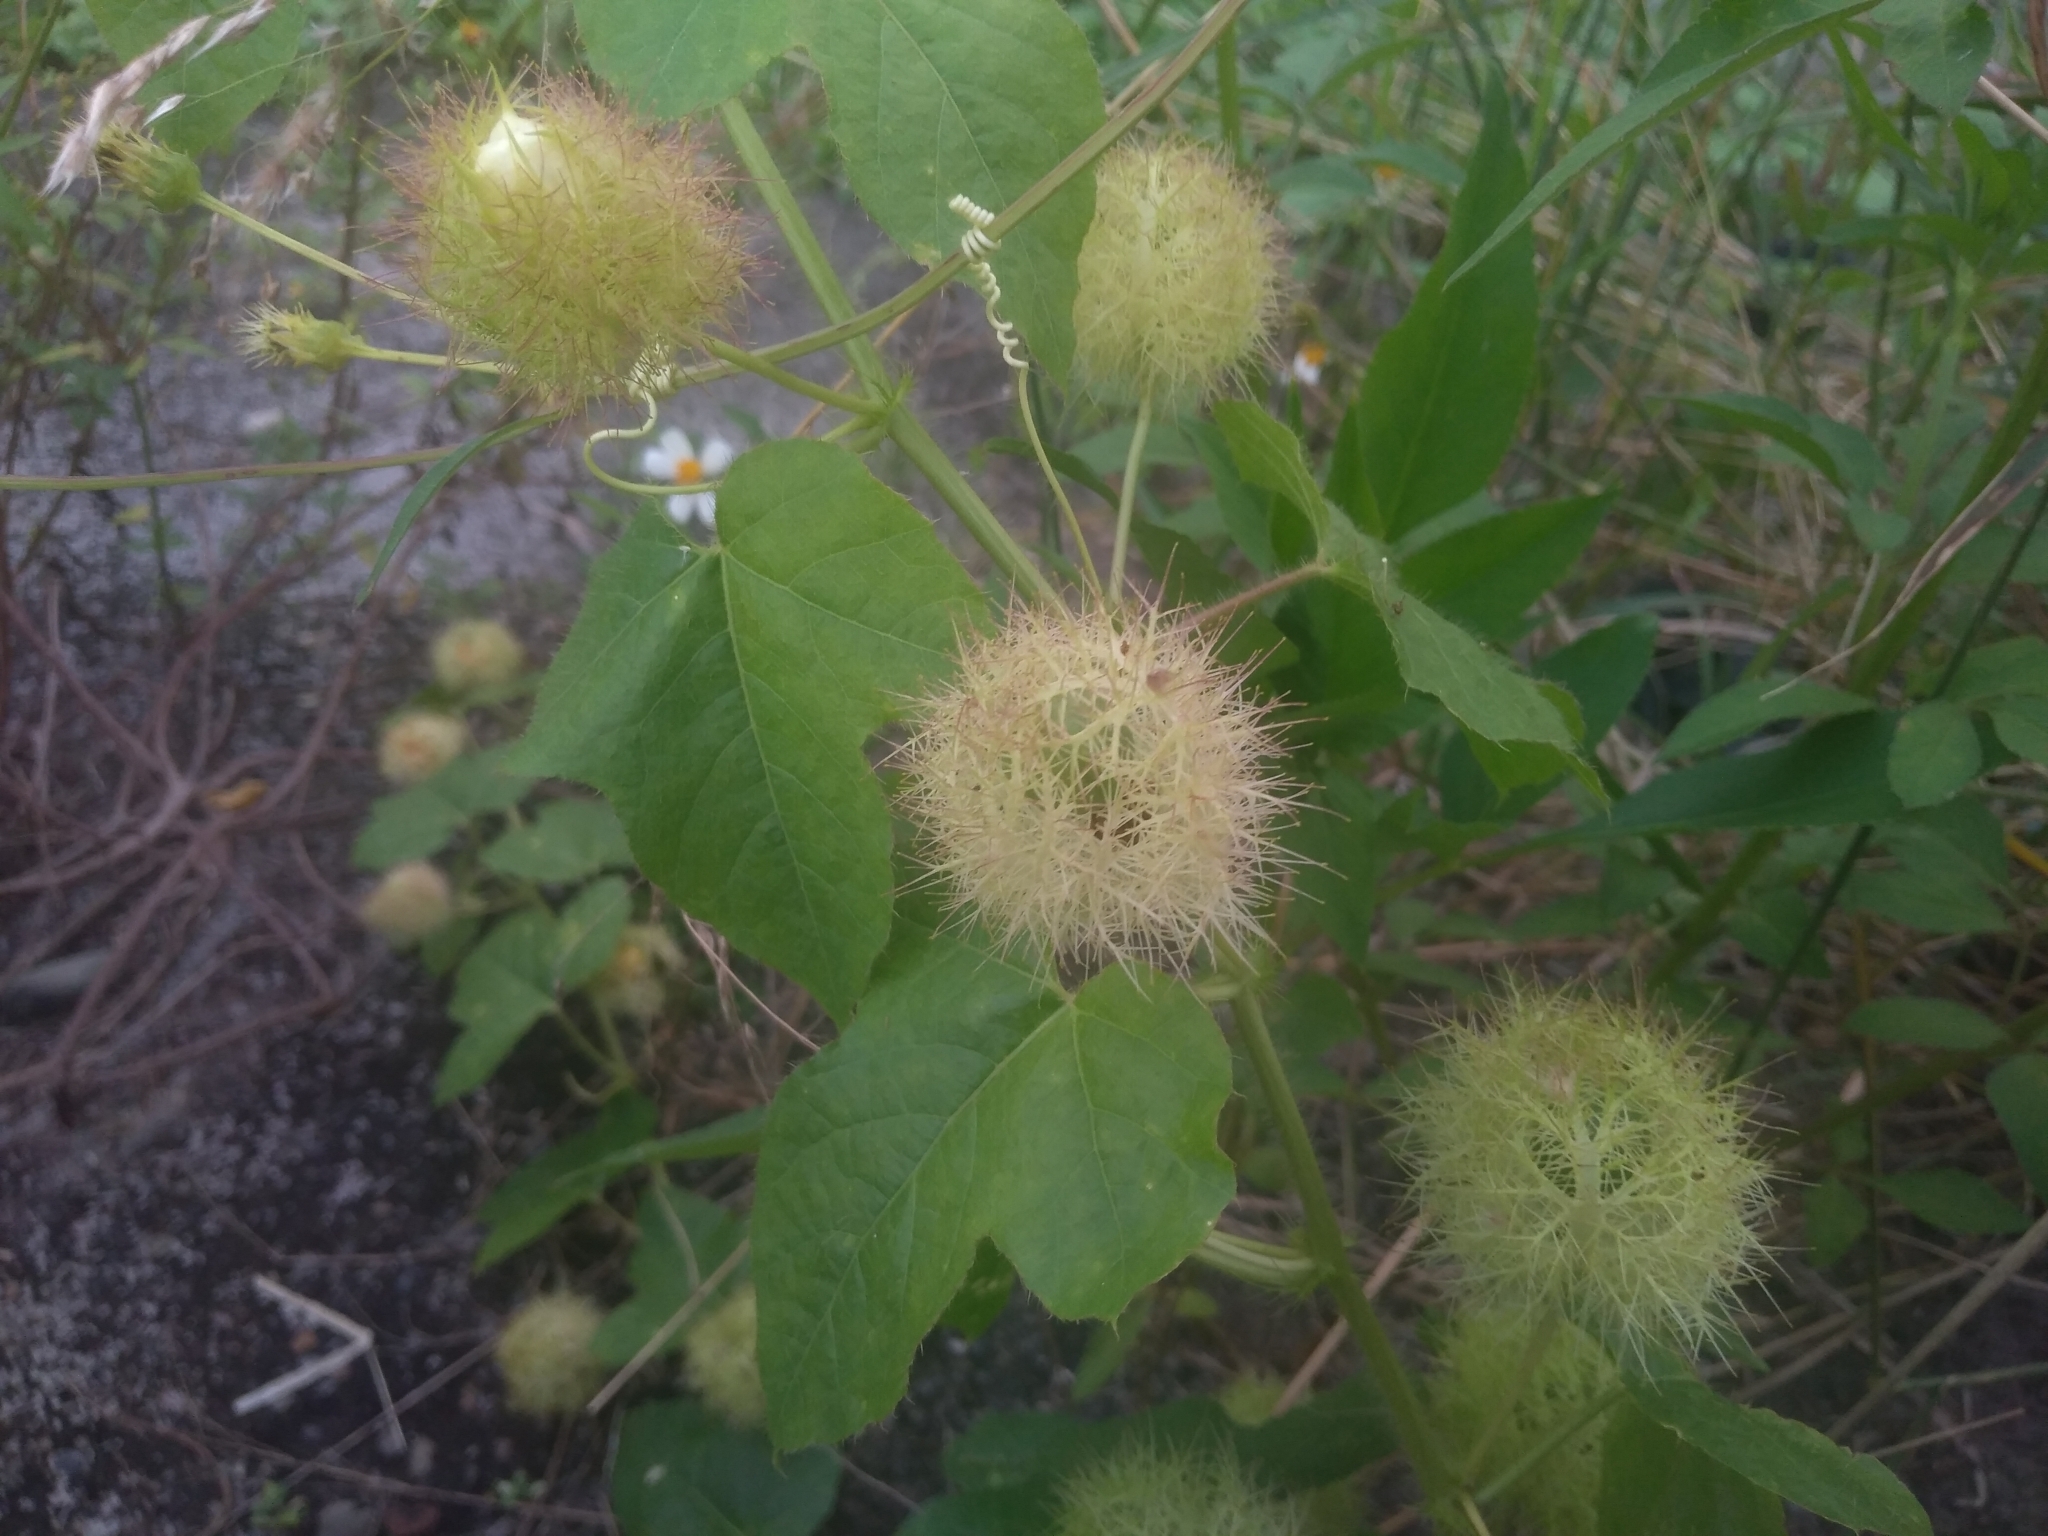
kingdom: Plantae
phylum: Tracheophyta
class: Magnoliopsida
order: Malpighiales
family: Passifloraceae
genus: Passiflora
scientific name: Passiflora vesicaria
